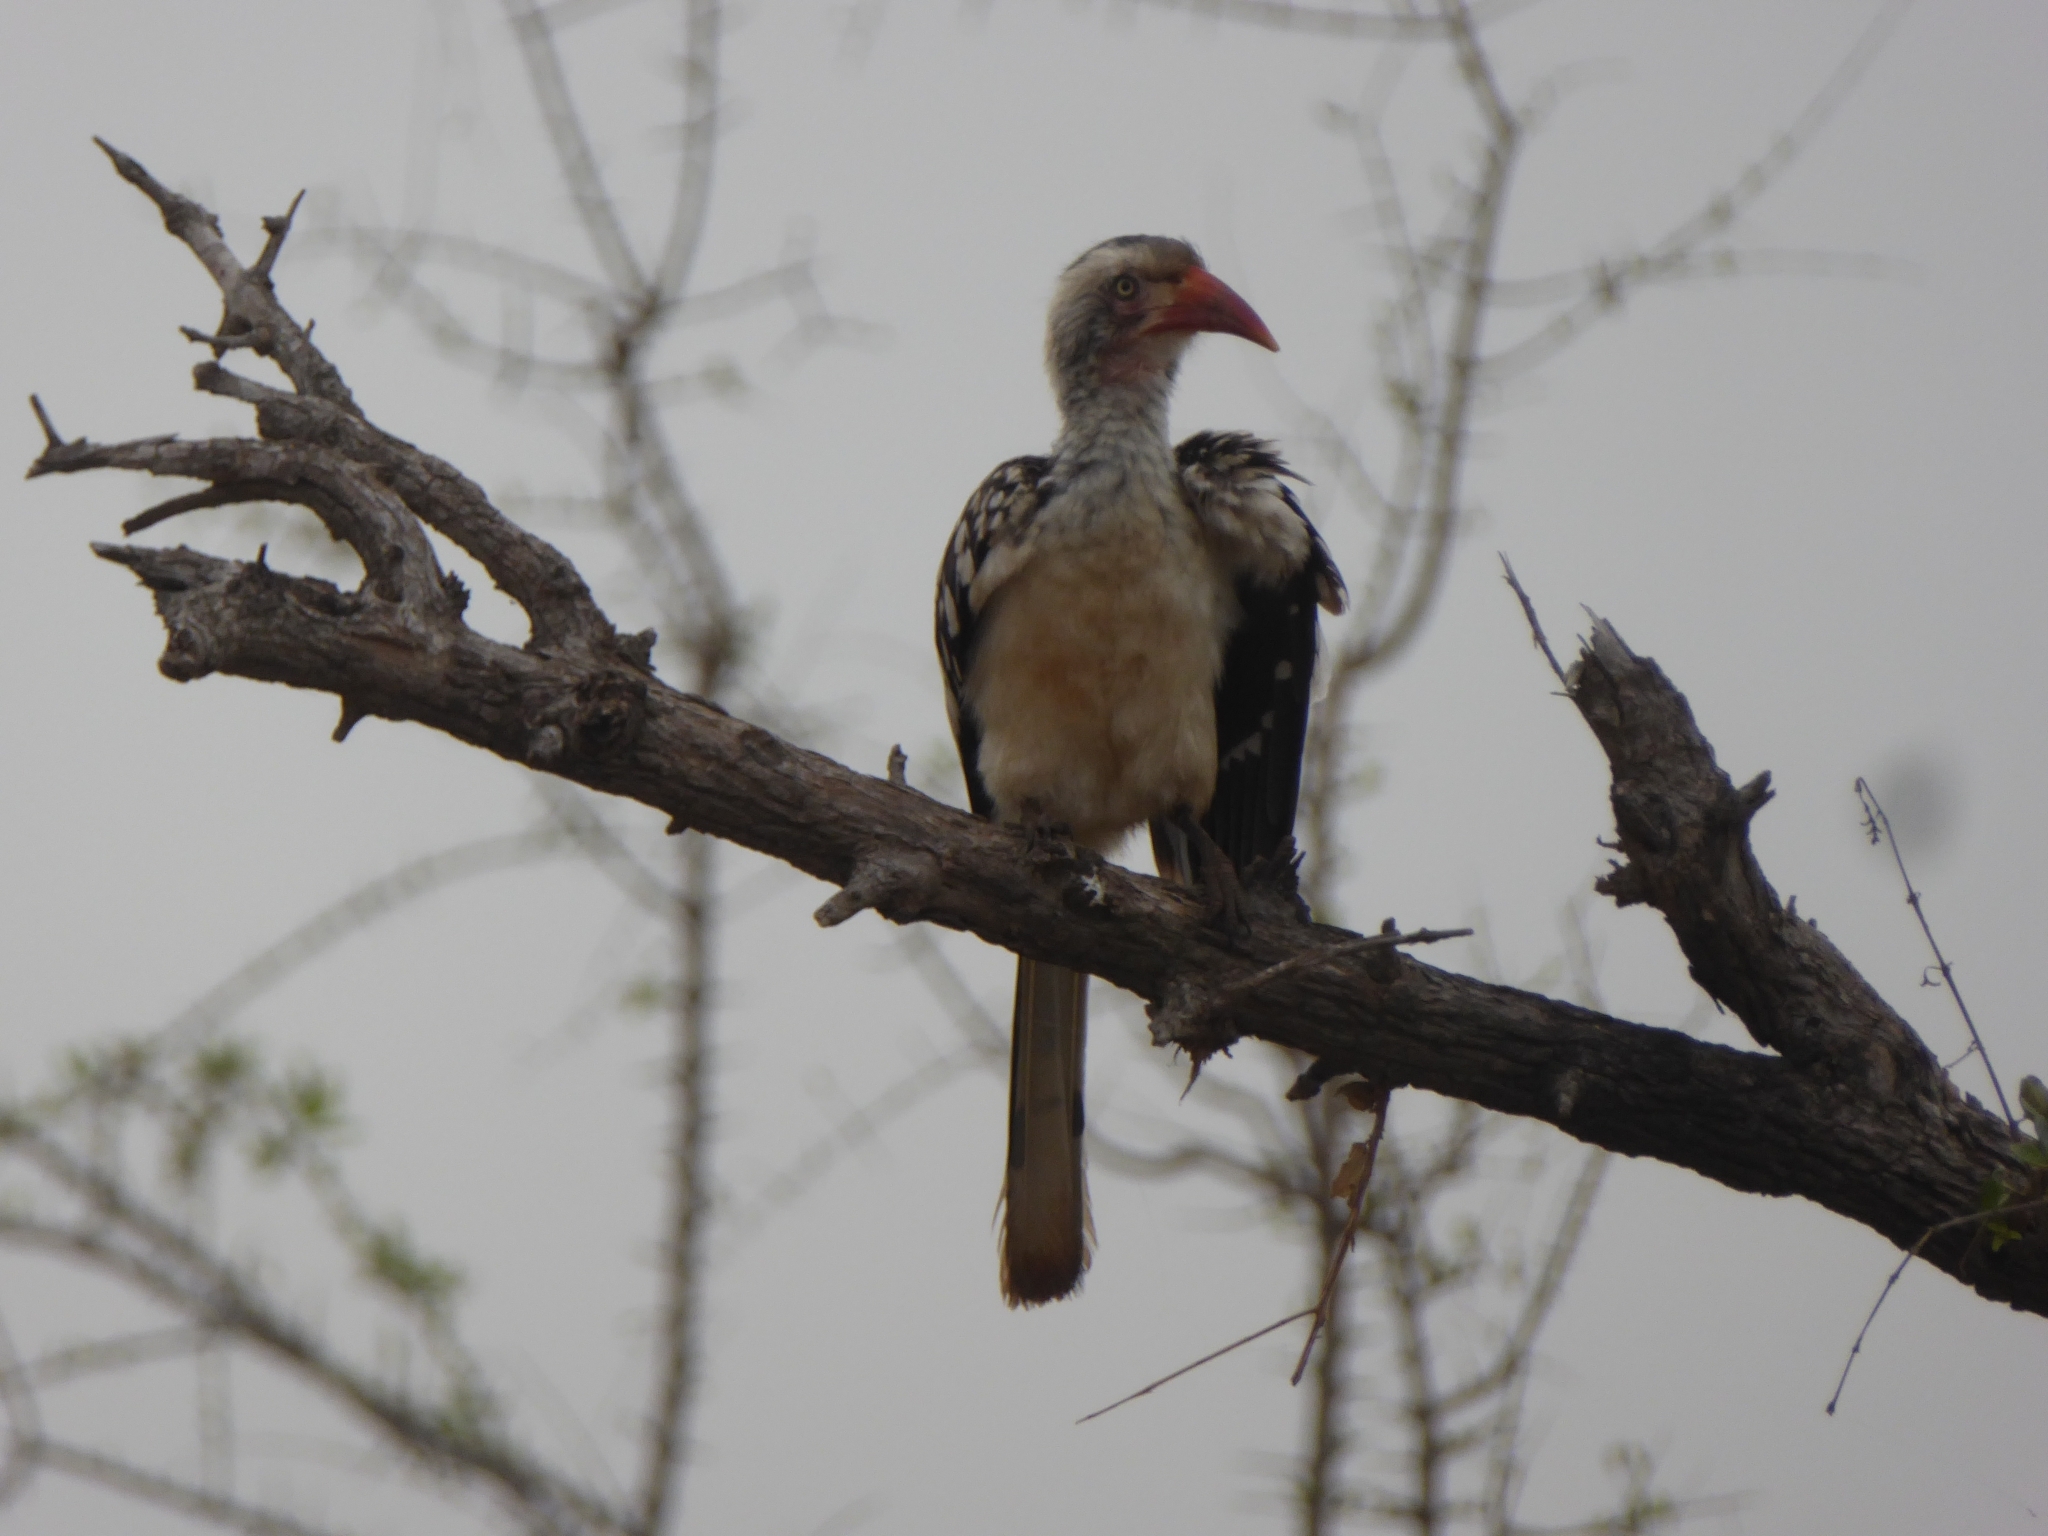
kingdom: Animalia
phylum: Chordata
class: Aves
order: Bucerotiformes
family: Bucerotidae
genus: Tockus
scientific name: Tockus rufirostris
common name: Southern red-billed hornbill
